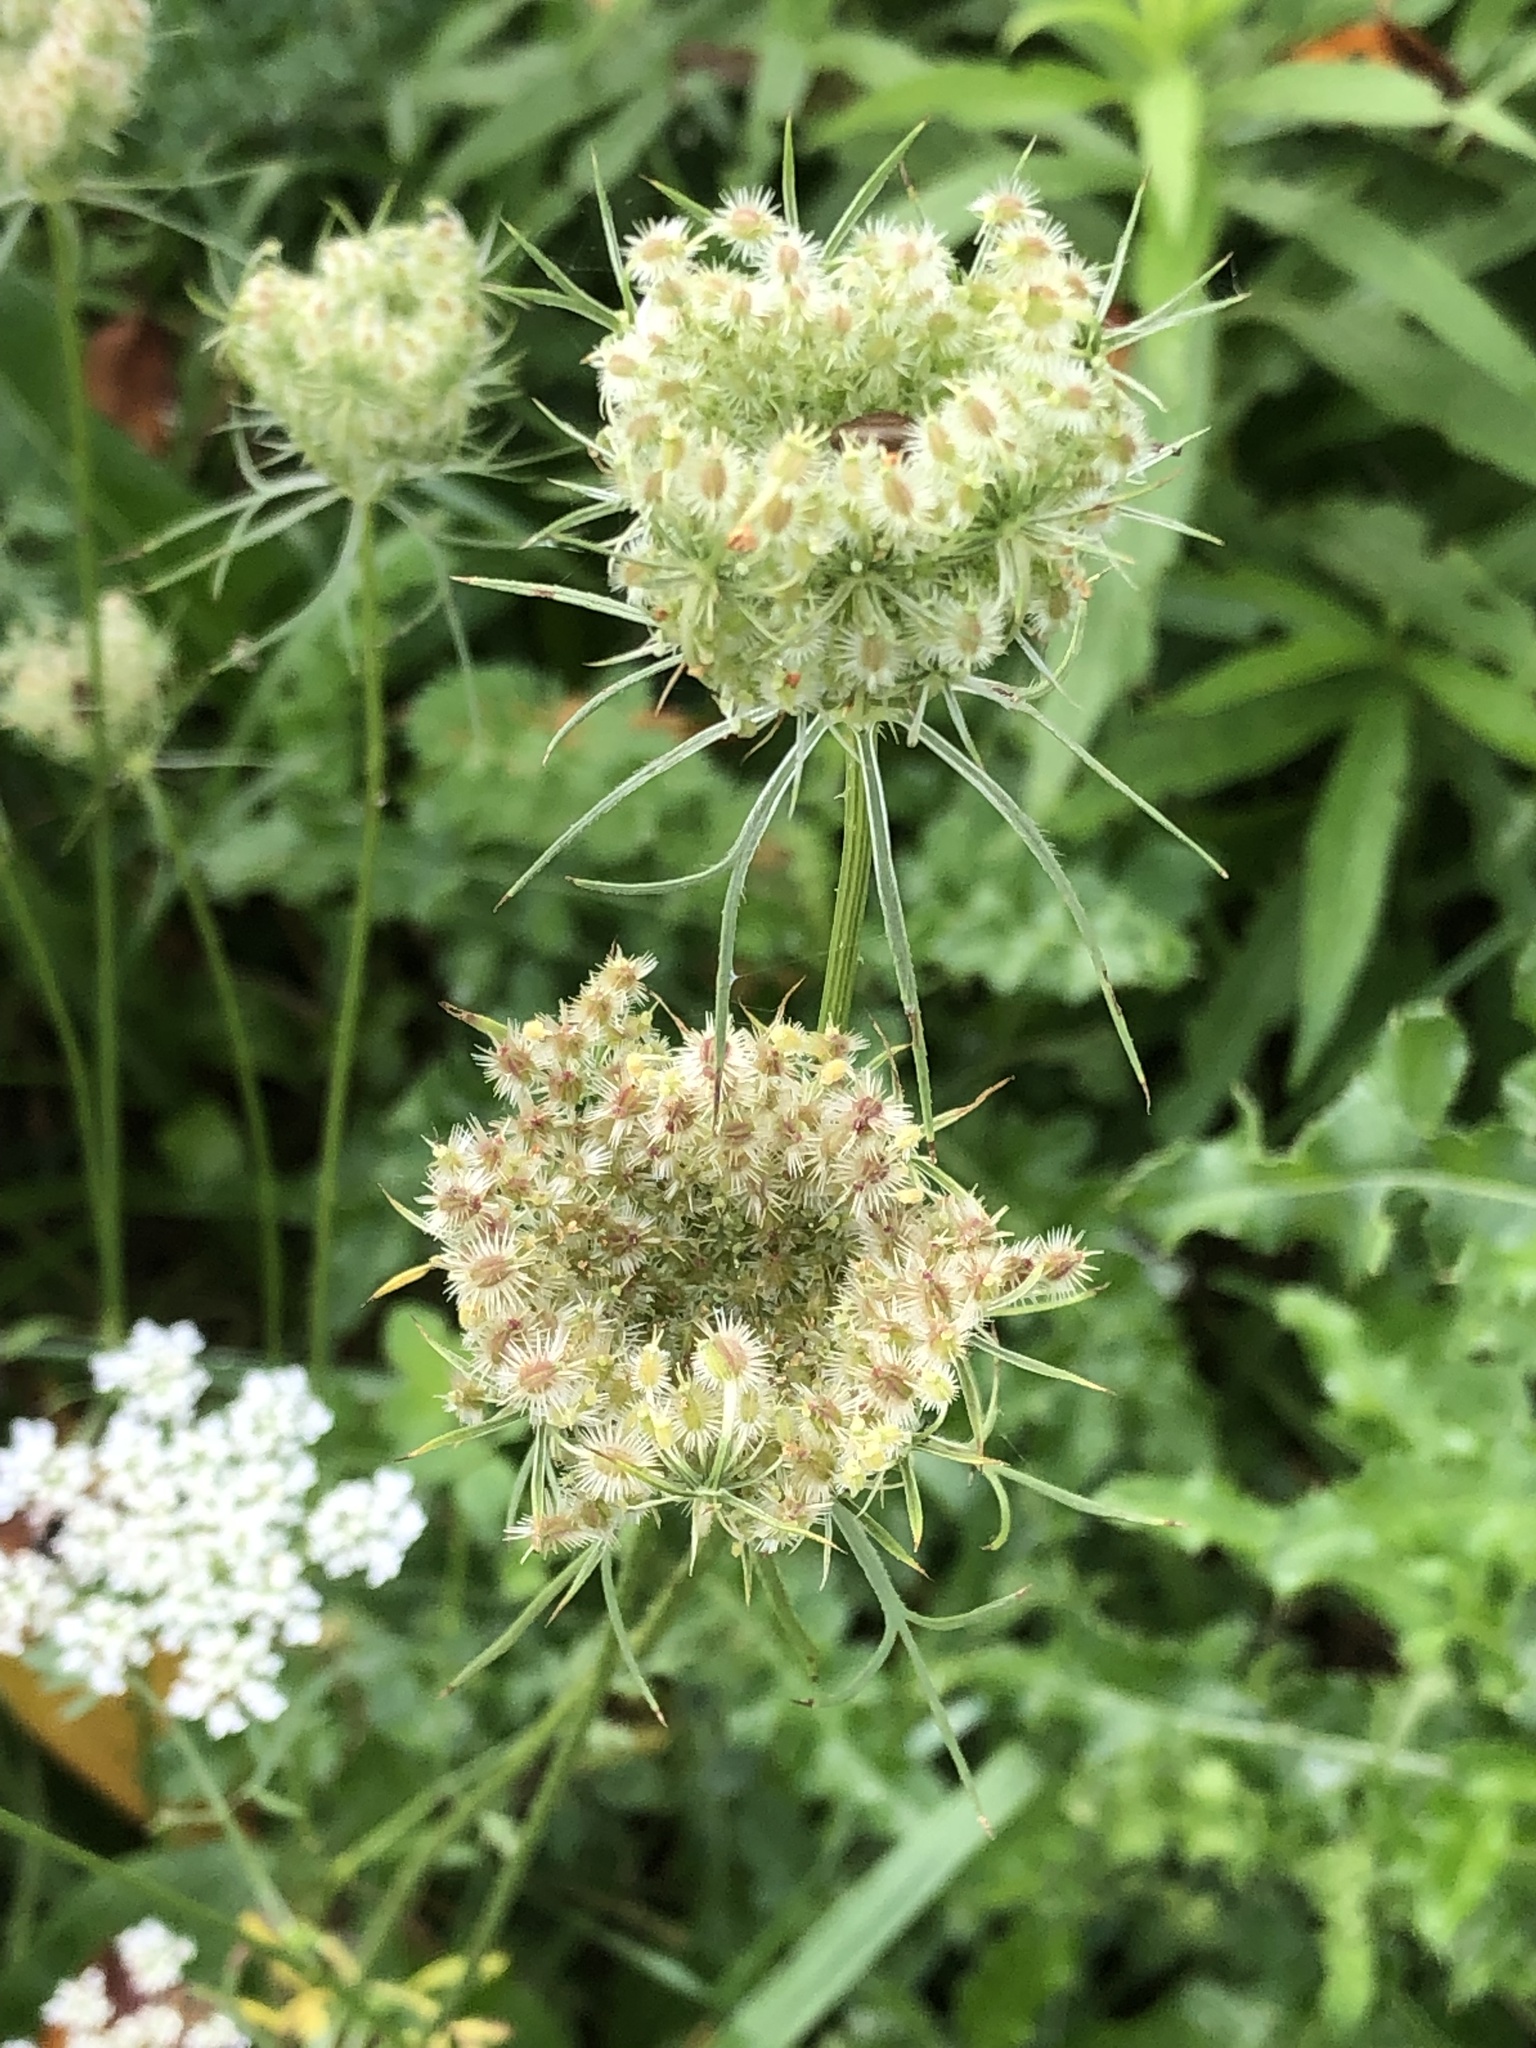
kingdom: Plantae
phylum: Tracheophyta
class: Magnoliopsida
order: Apiales
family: Apiaceae
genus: Daucus
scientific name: Daucus carota
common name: Wild carrot
